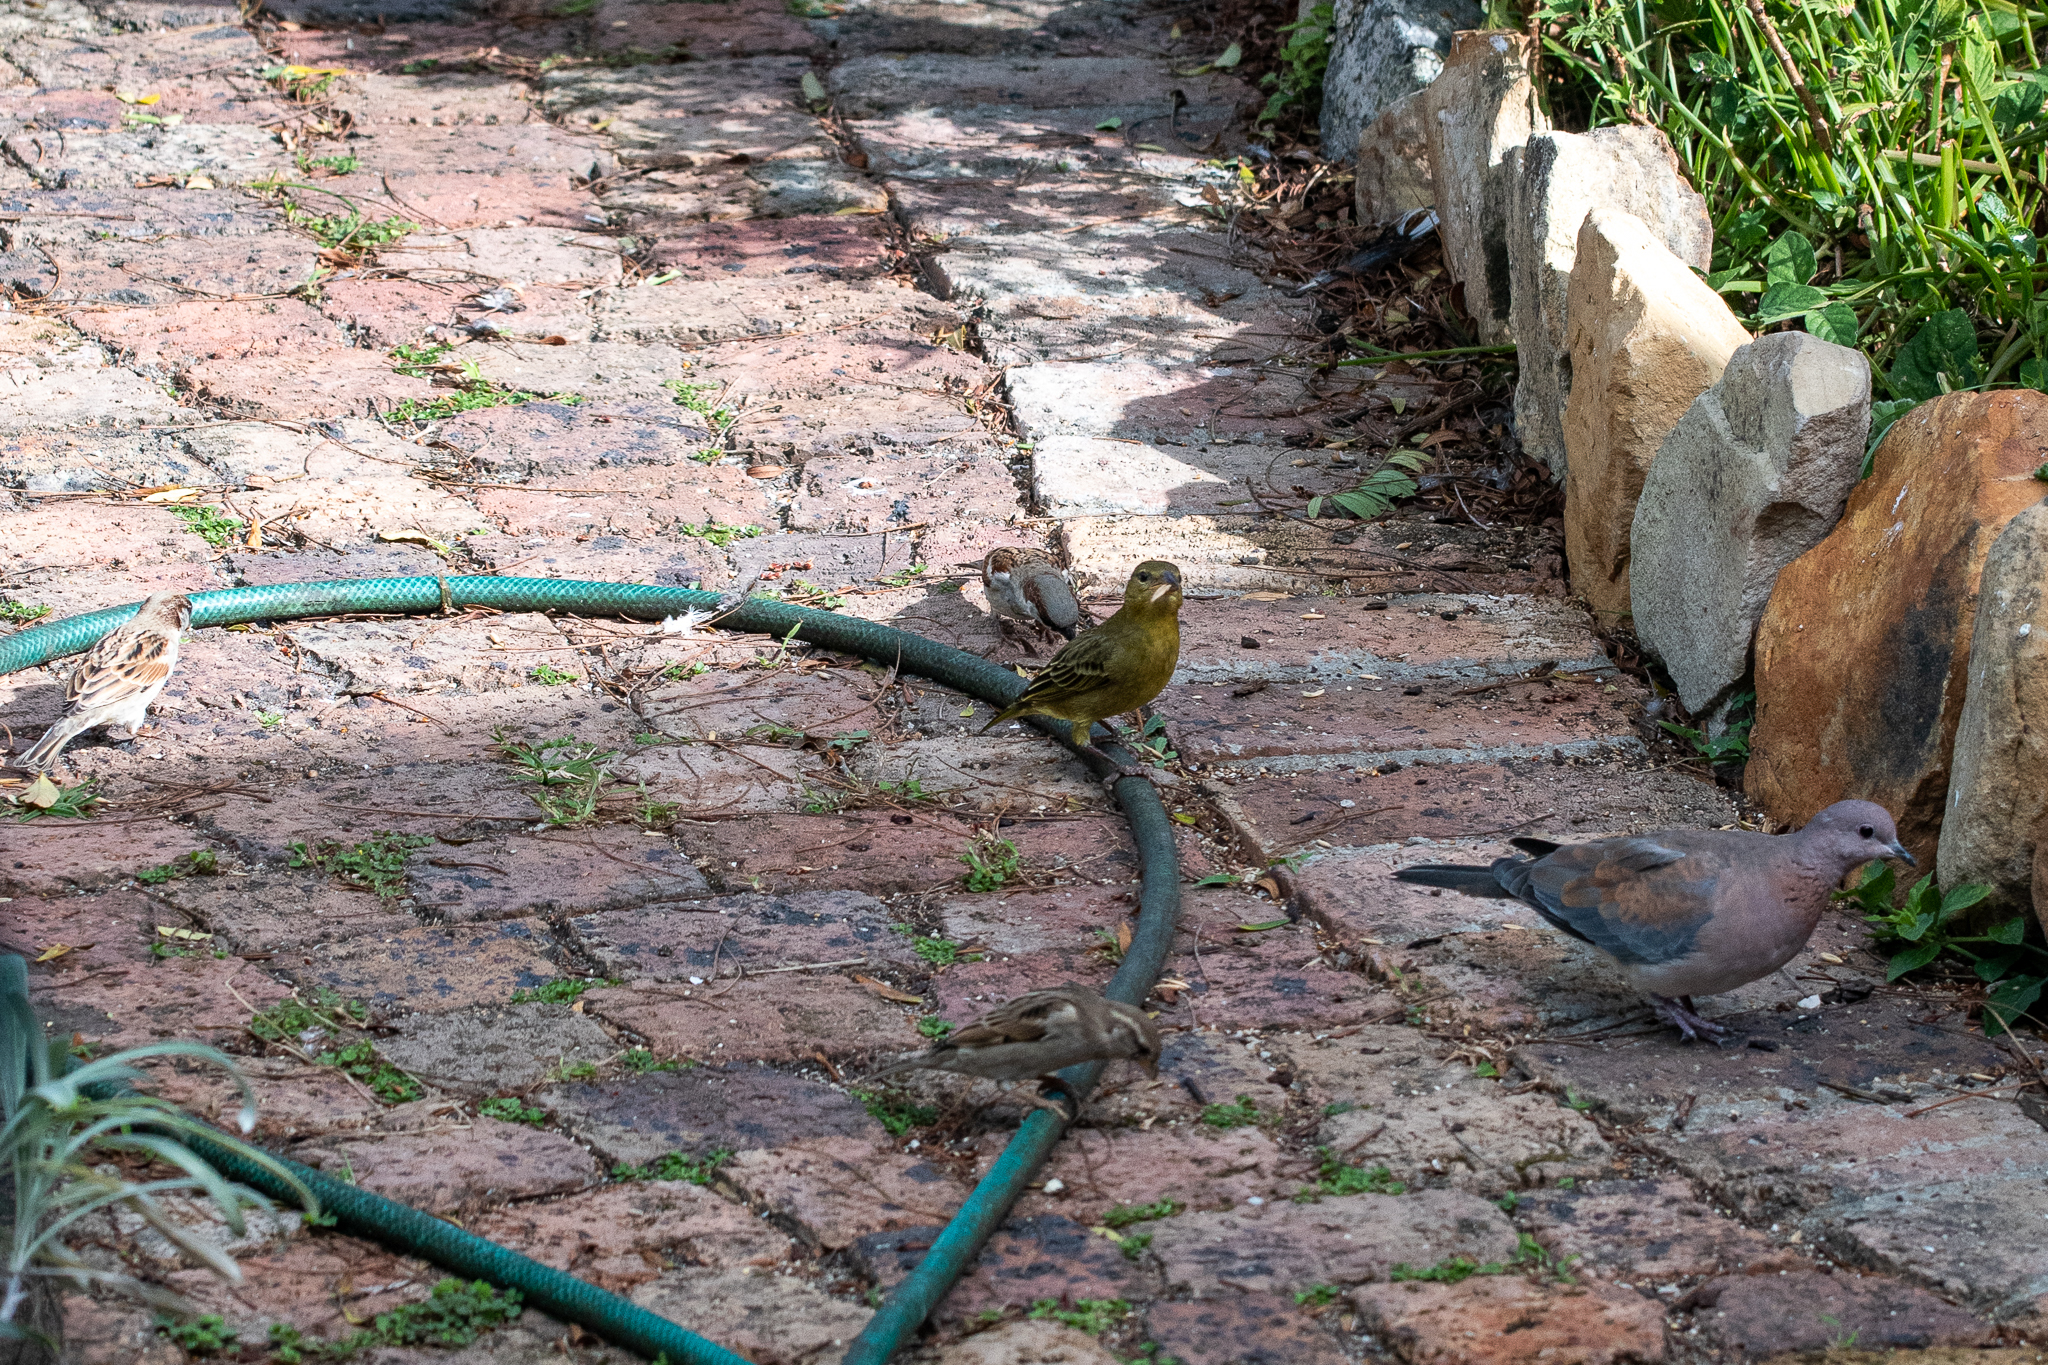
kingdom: Animalia
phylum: Chordata
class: Aves
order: Columbiformes
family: Columbidae
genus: Spilopelia
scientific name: Spilopelia senegalensis
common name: Laughing dove
